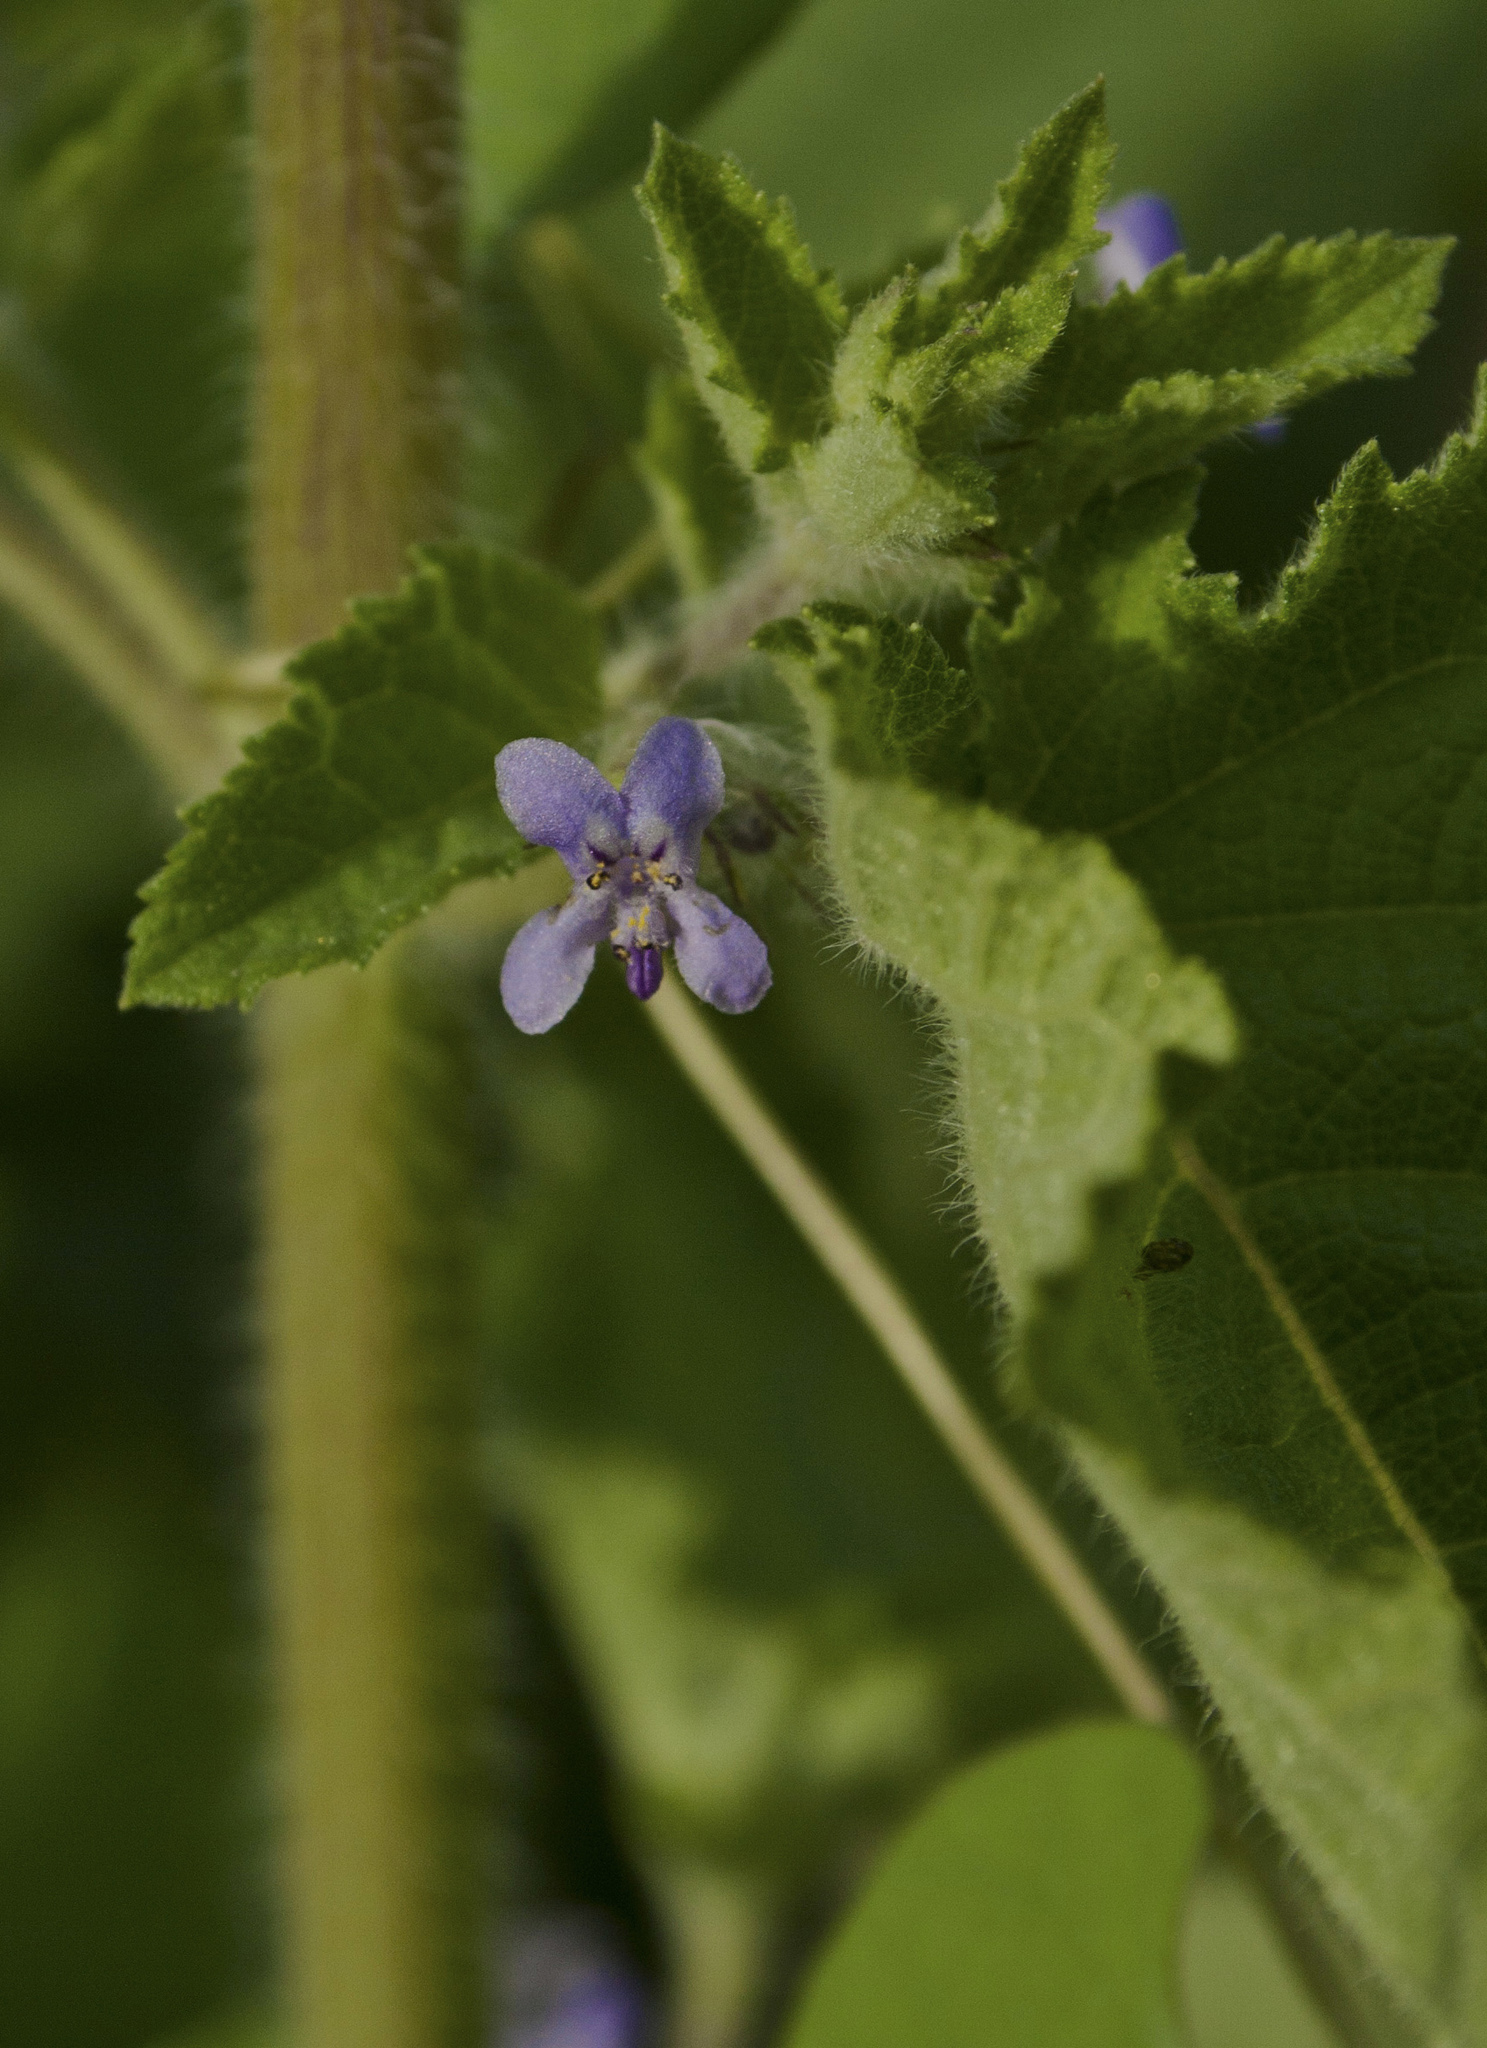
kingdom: Plantae
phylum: Tracheophyta
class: Magnoliopsida
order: Lamiales
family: Lamiaceae
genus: Mesosphaerum
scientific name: Mesosphaerum suaveolens
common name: Pignut
